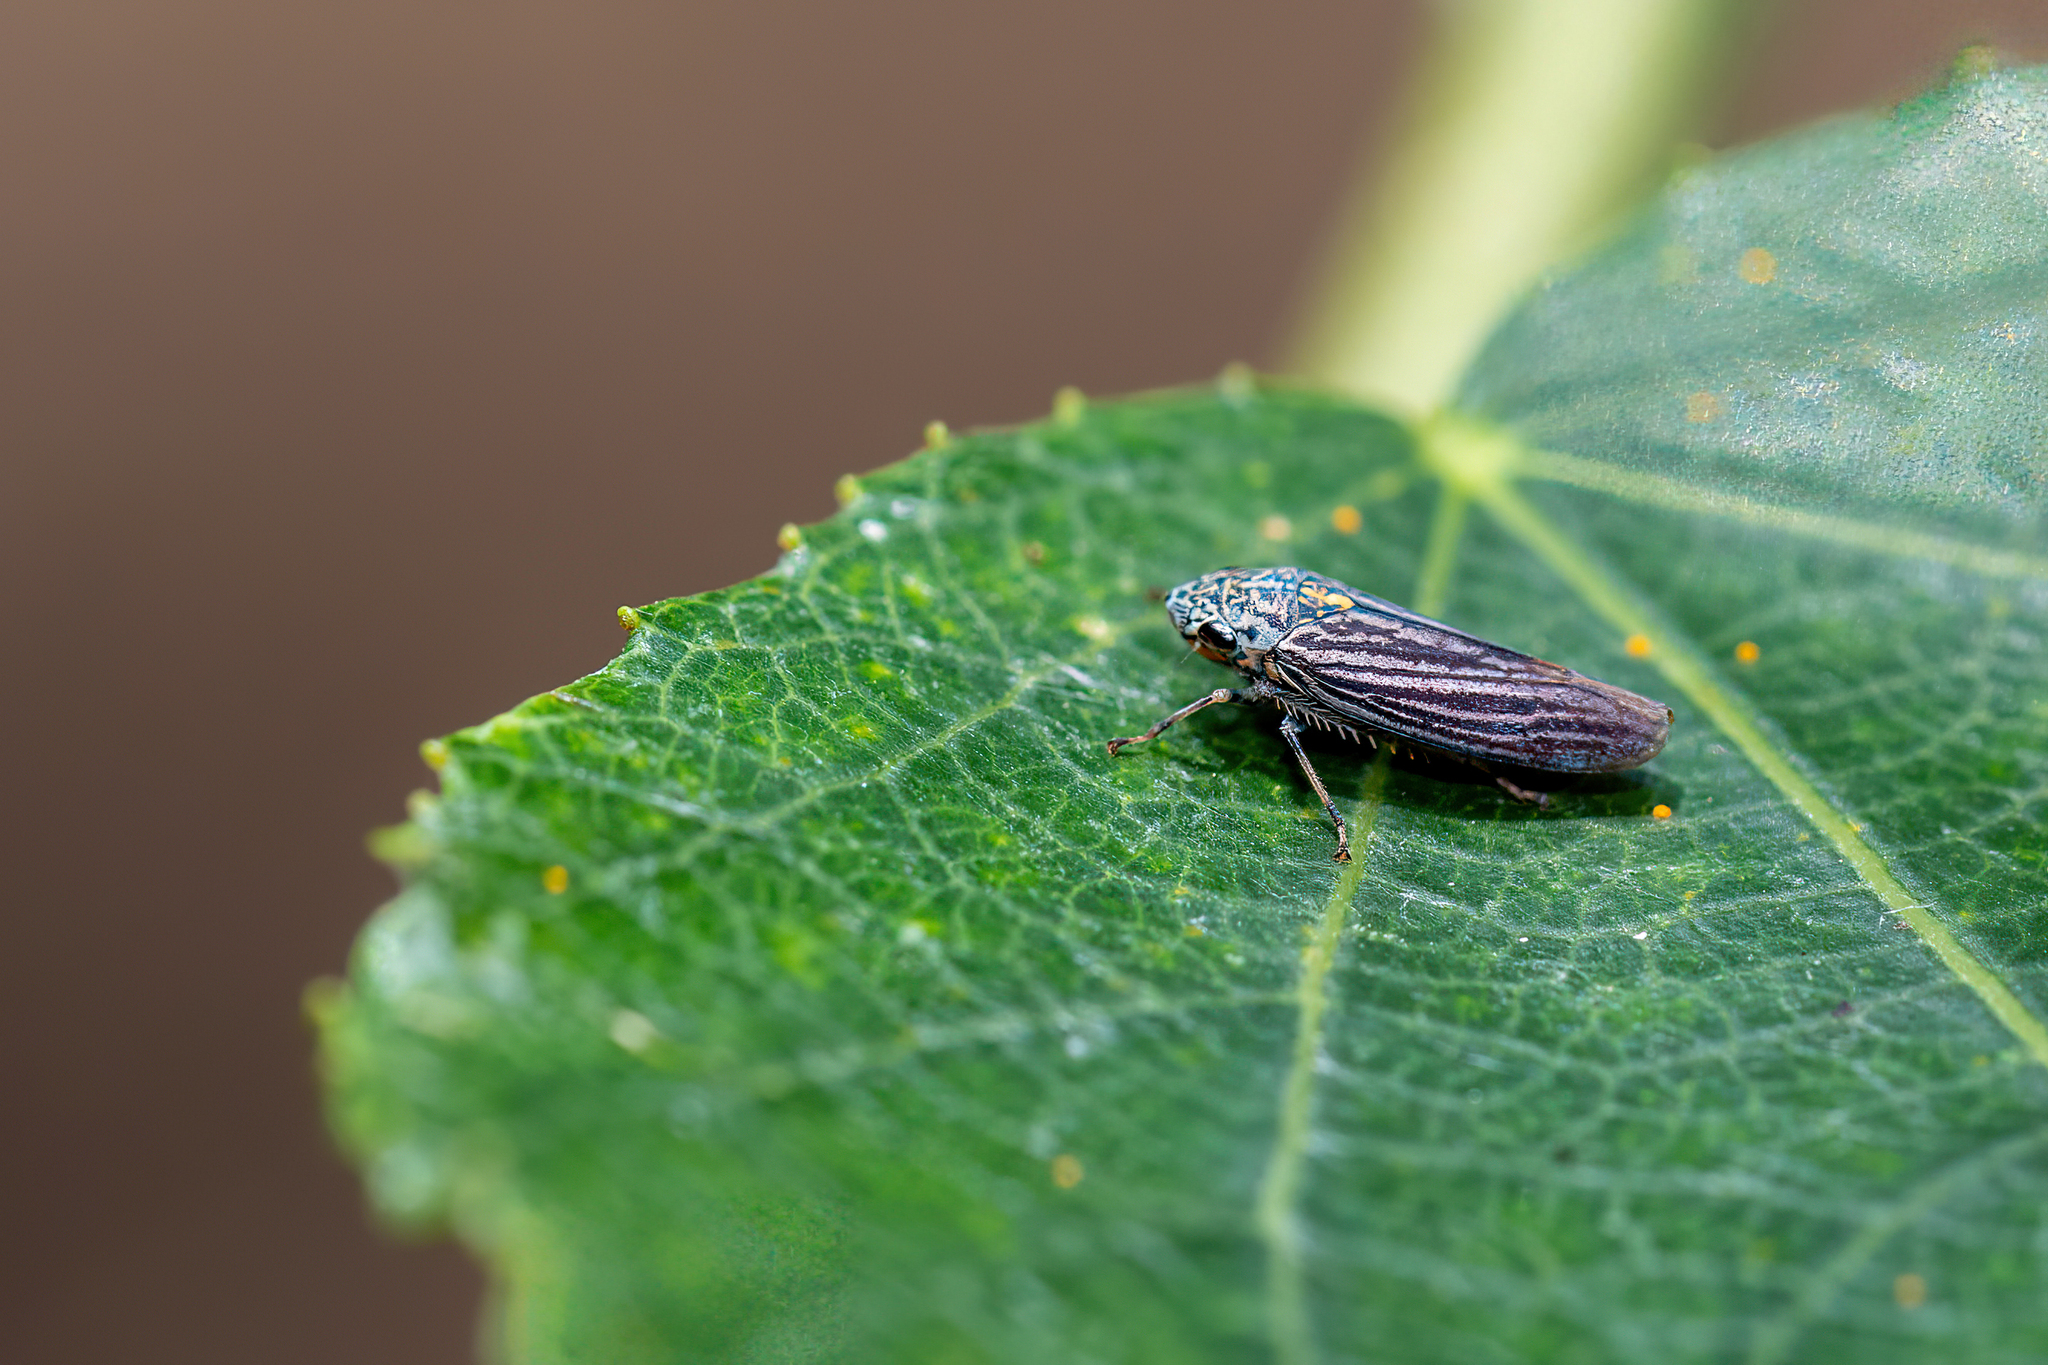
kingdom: Animalia
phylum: Arthropoda
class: Insecta
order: Hemiptera
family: Cicadellidae
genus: Graphocephala
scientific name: Graphocephala appropinquans
